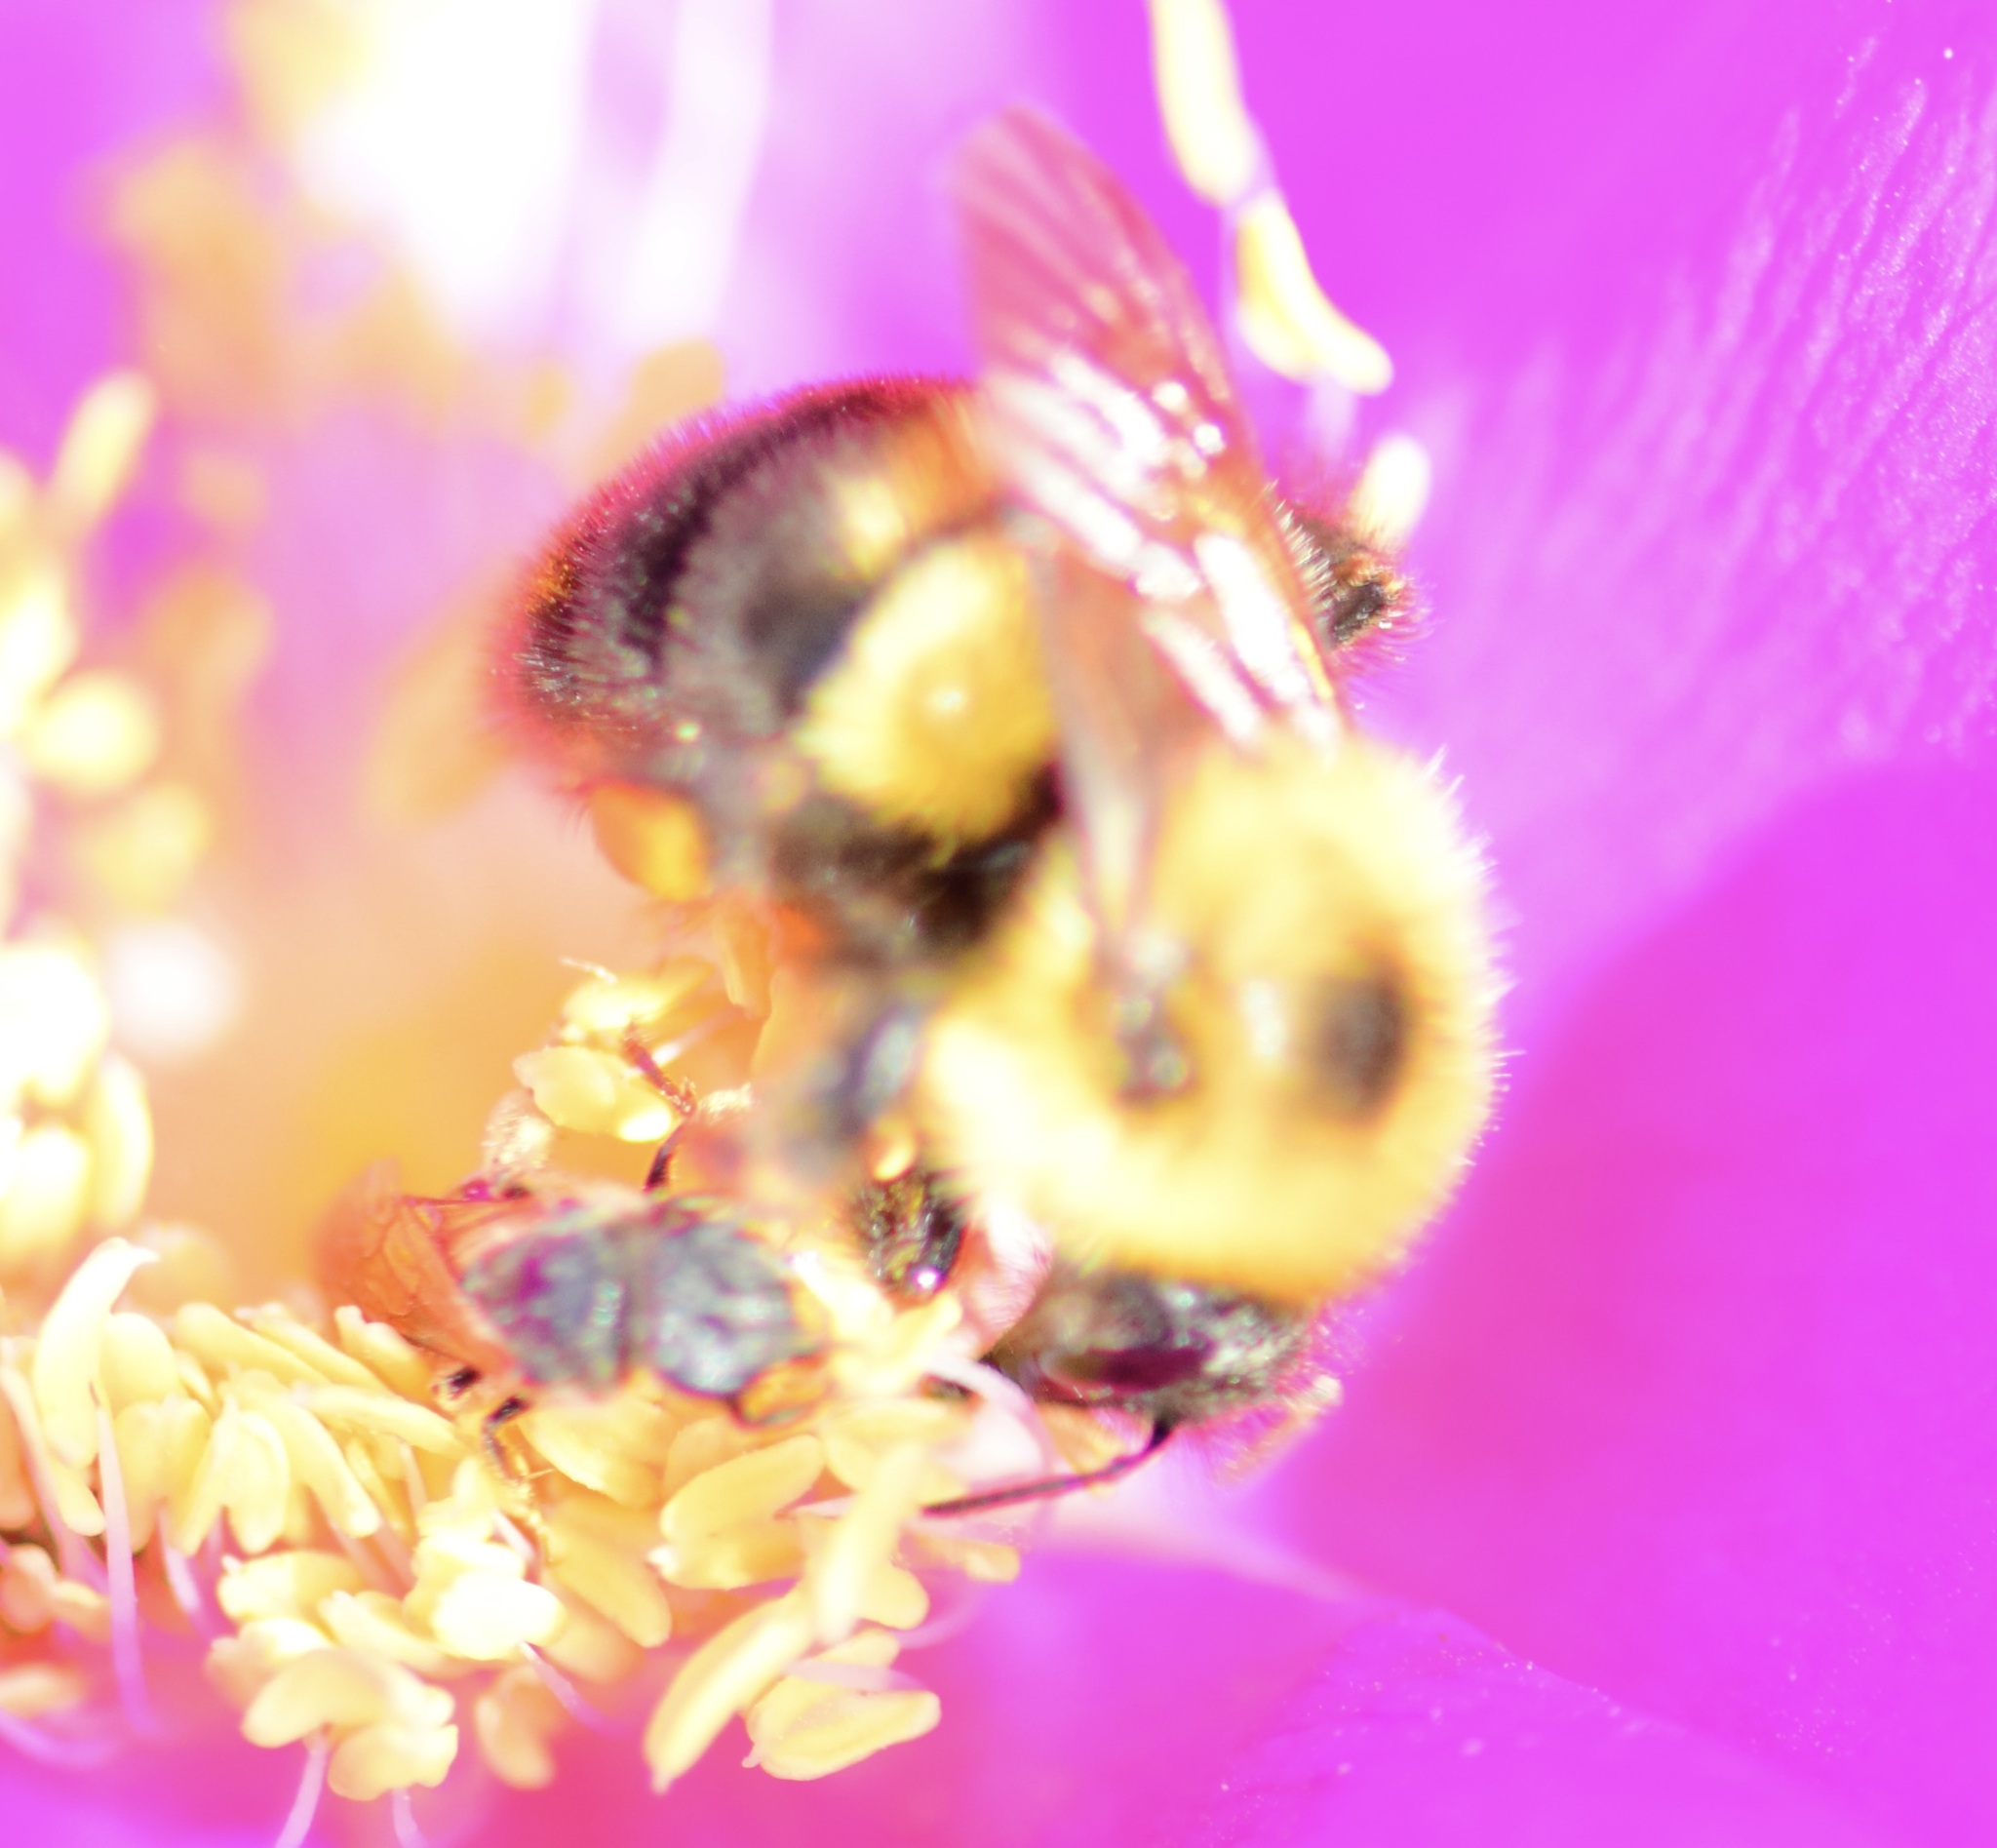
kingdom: Animalia
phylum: Arthropoda
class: Insecta
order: Hymenoptera
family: Apidae
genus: Bombus
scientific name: Bombus bimaculatus
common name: Two-spotted bumble bee
